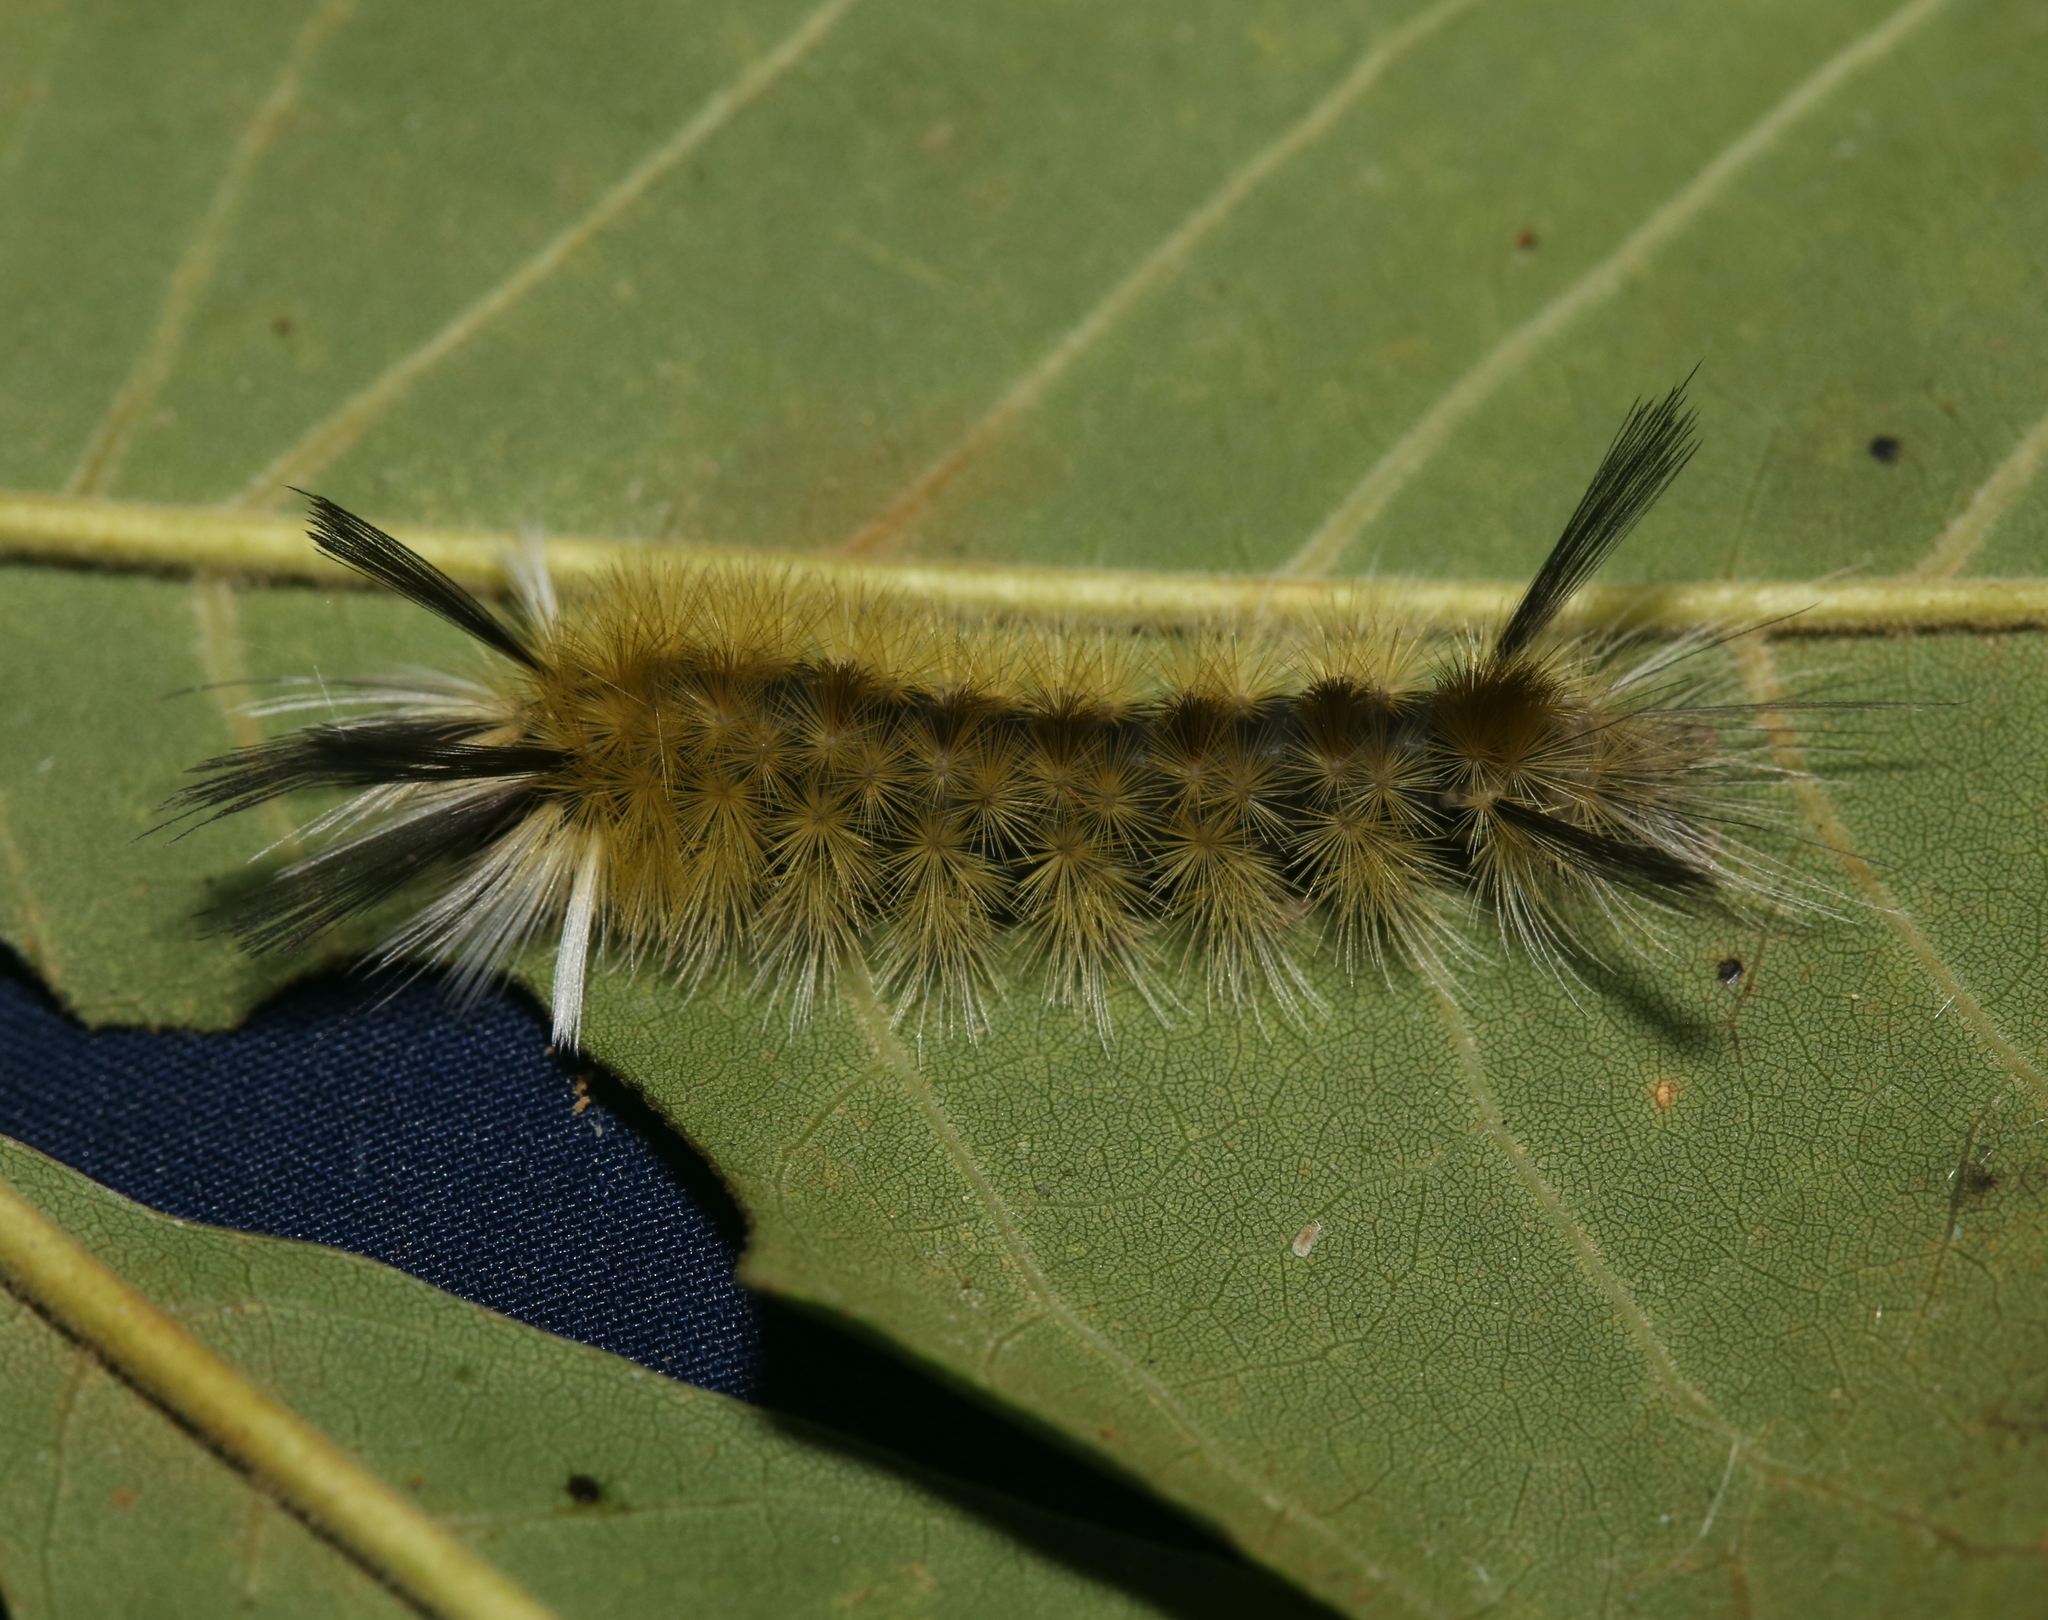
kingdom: Animalia
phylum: Arthropoda
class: Insecta
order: Lepidoptera
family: Erebidae
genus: Halysidota
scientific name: Halysidota tessellaris
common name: Banded tussock moth
